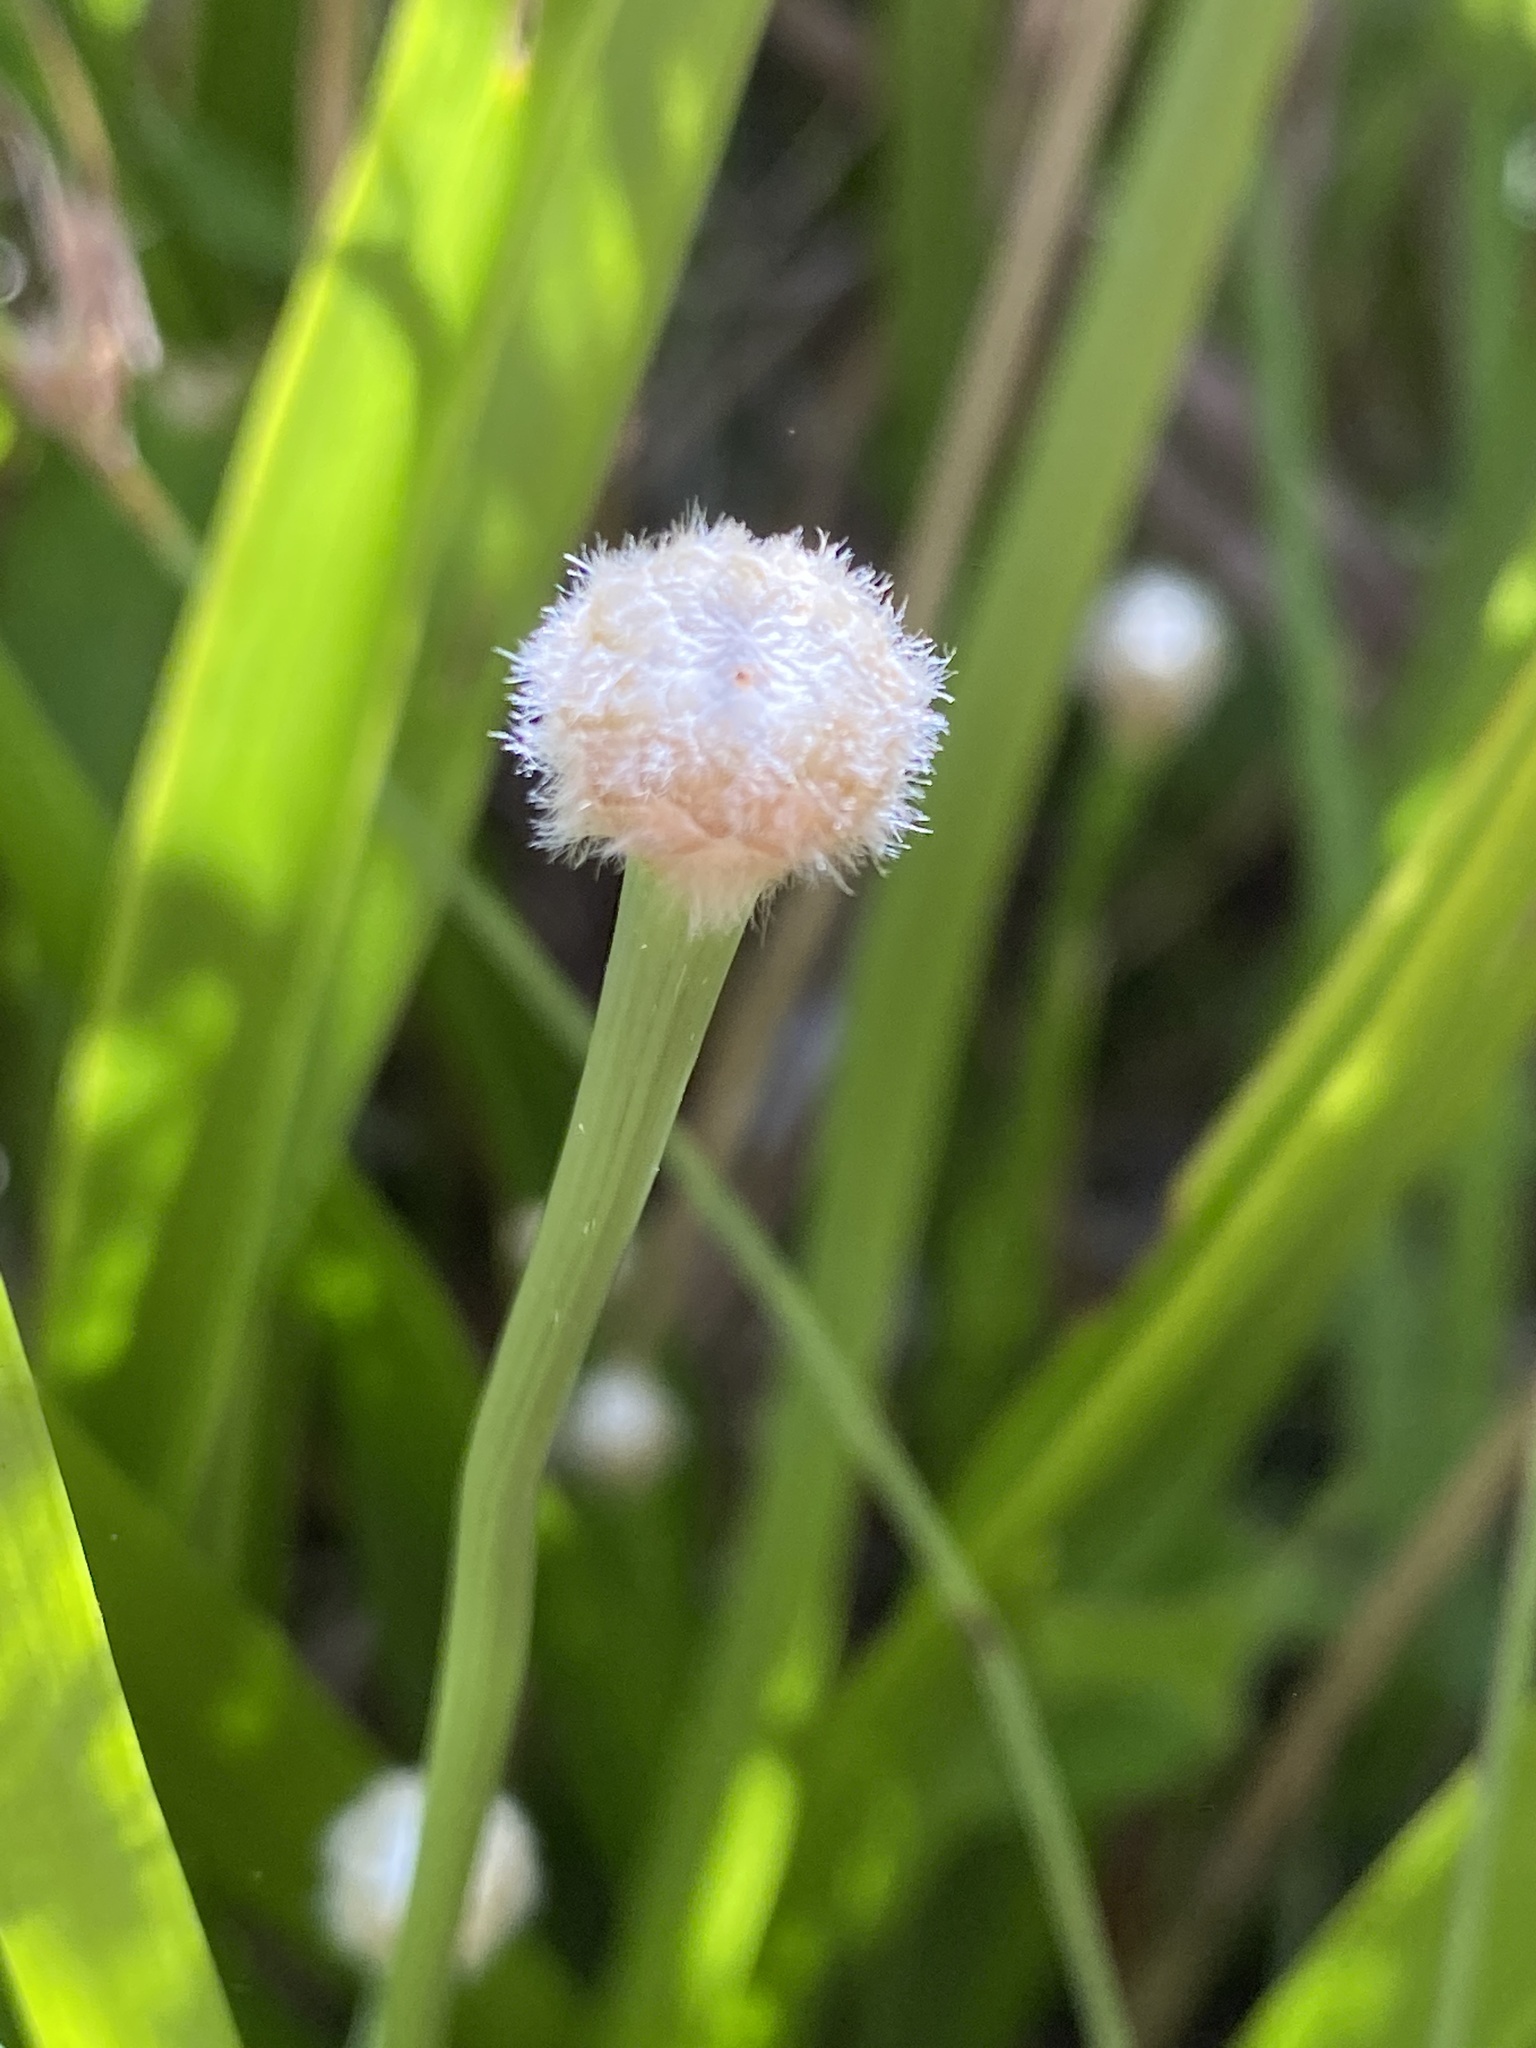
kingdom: Plantae
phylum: Tracheophyta
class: Liliopsida
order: Poales
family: Eriocaulaceae
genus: Eriocaulon
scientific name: Eriocaulon decangulare
